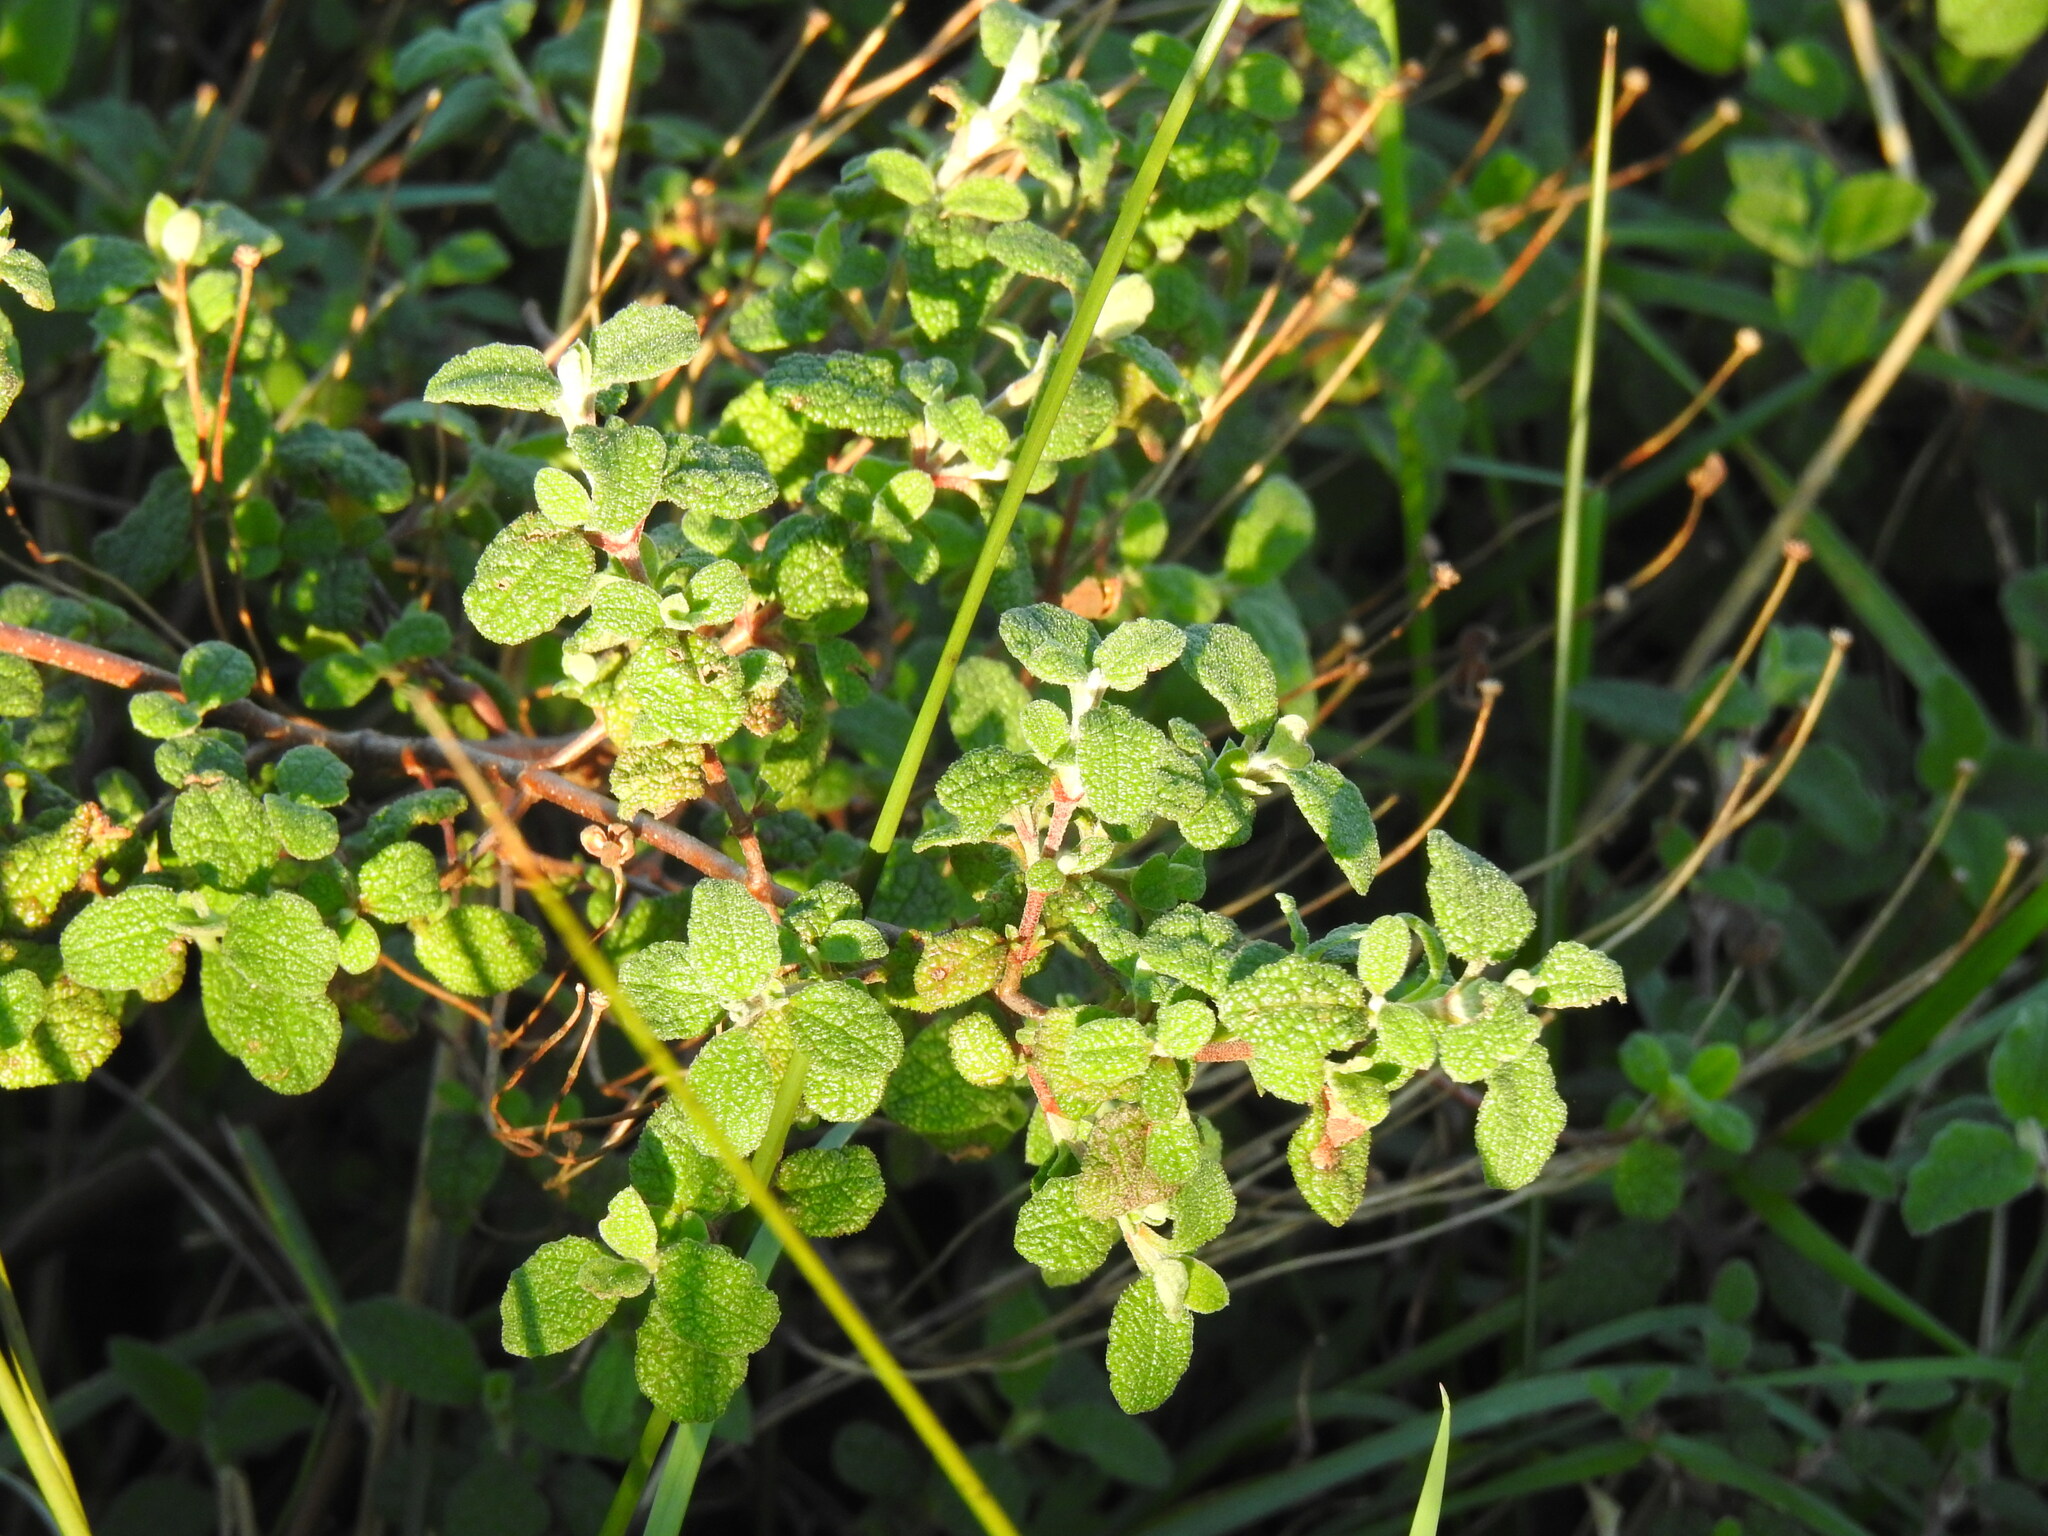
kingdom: Plantae
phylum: Tracheophyta
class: Magnoliopsida
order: Malvales
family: Cistaceae
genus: Cistus
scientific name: Cistus salviifolius
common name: Salvia cistus
